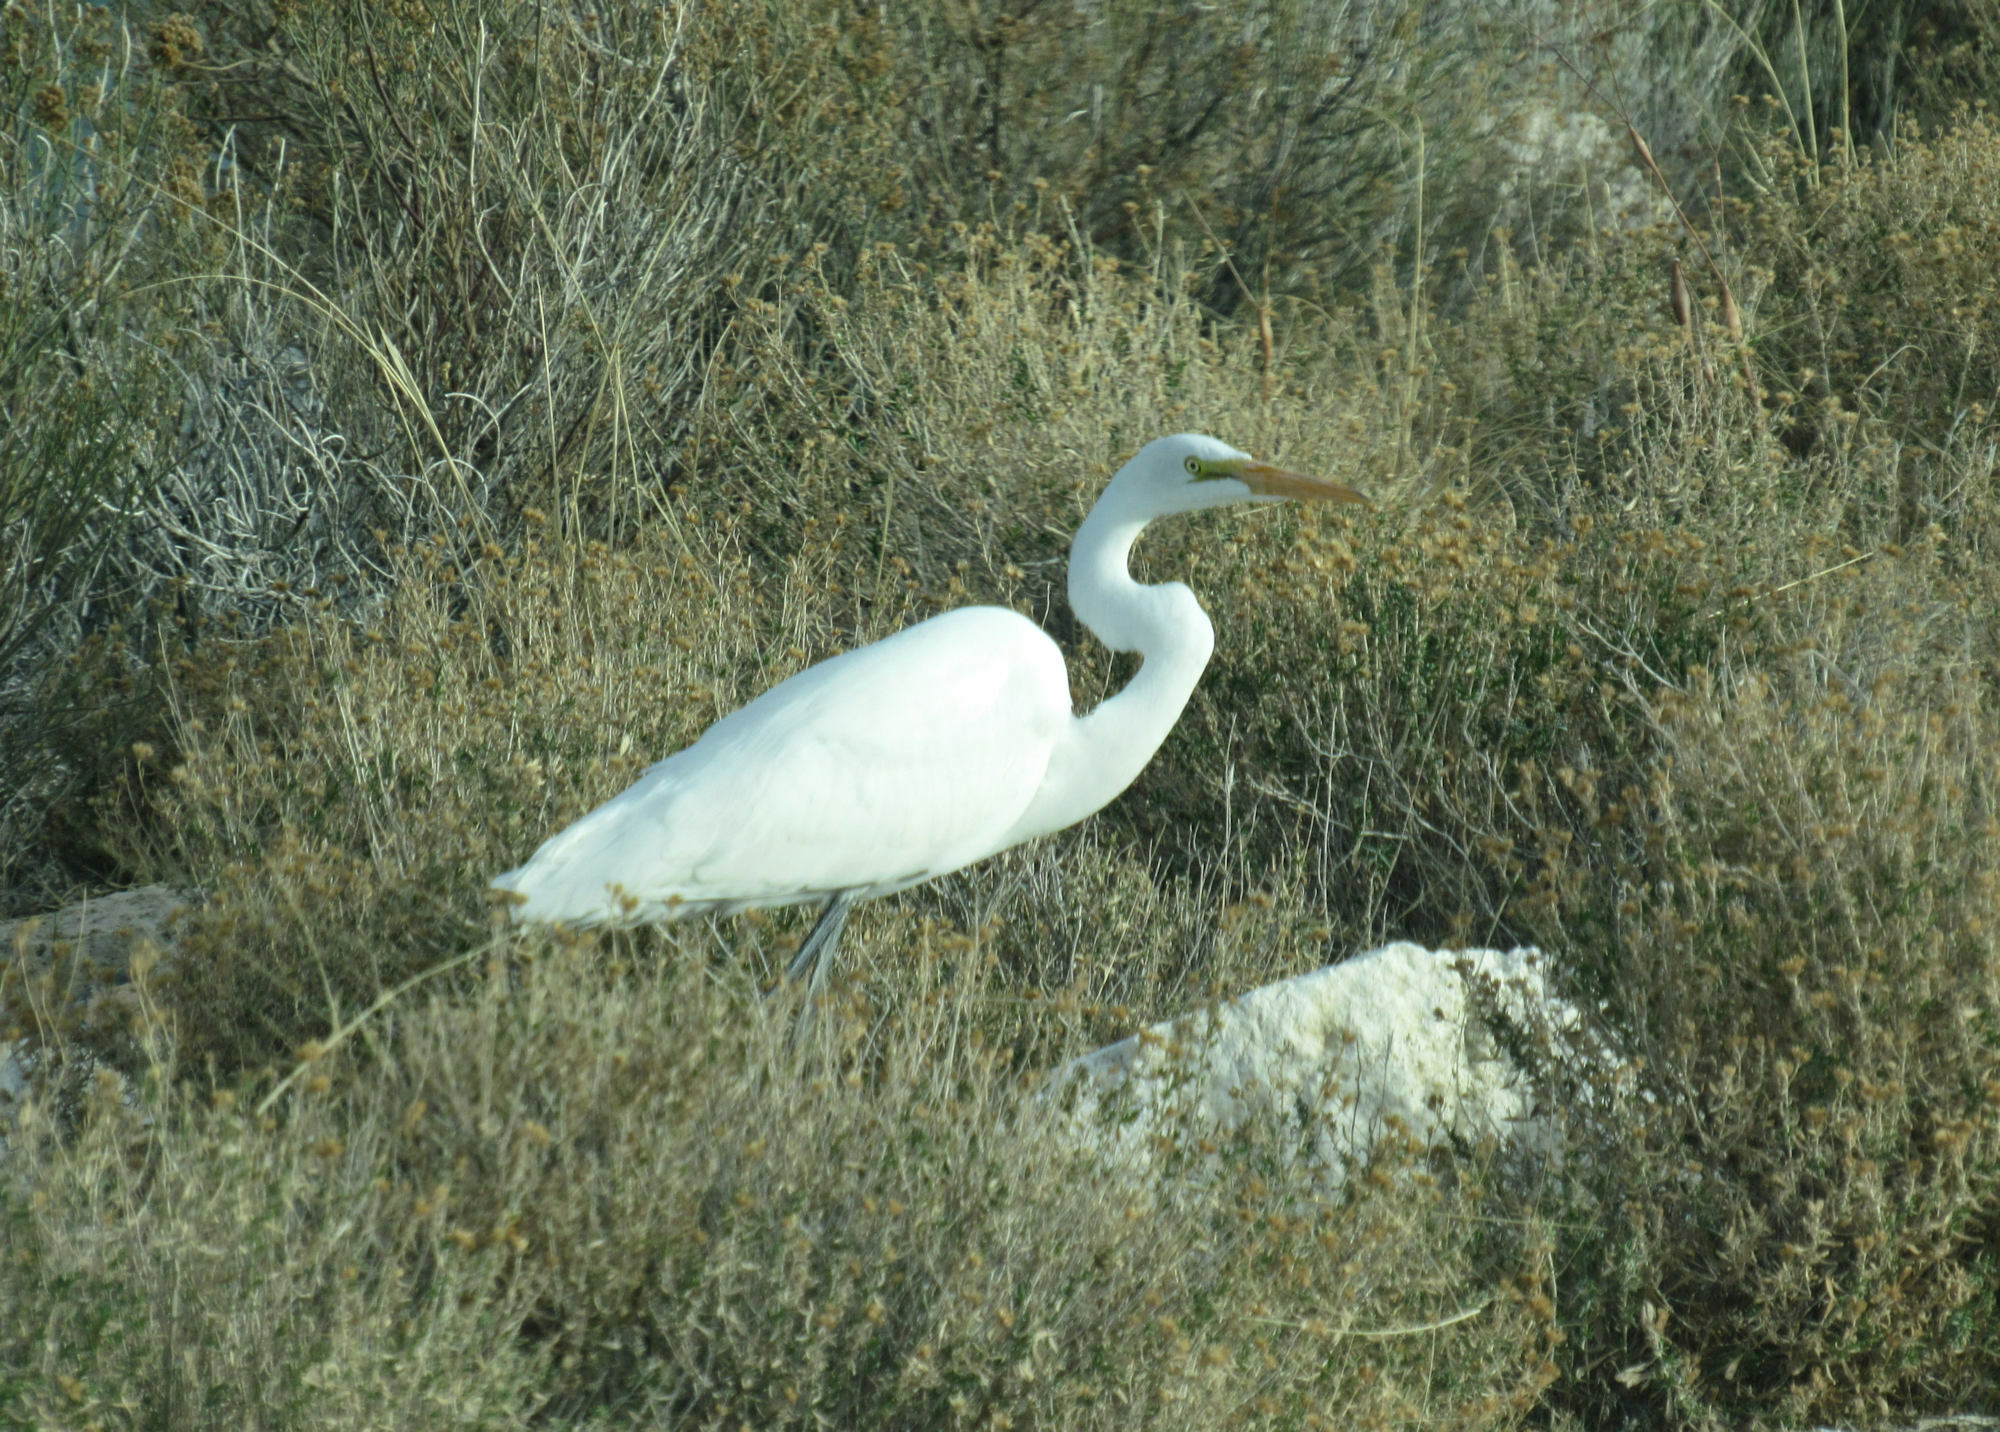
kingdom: Animalia
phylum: Chordata
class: Aves
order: Pelecaniformes
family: Ardeidae
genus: Ardea
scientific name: Ardea alba
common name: Great egret
